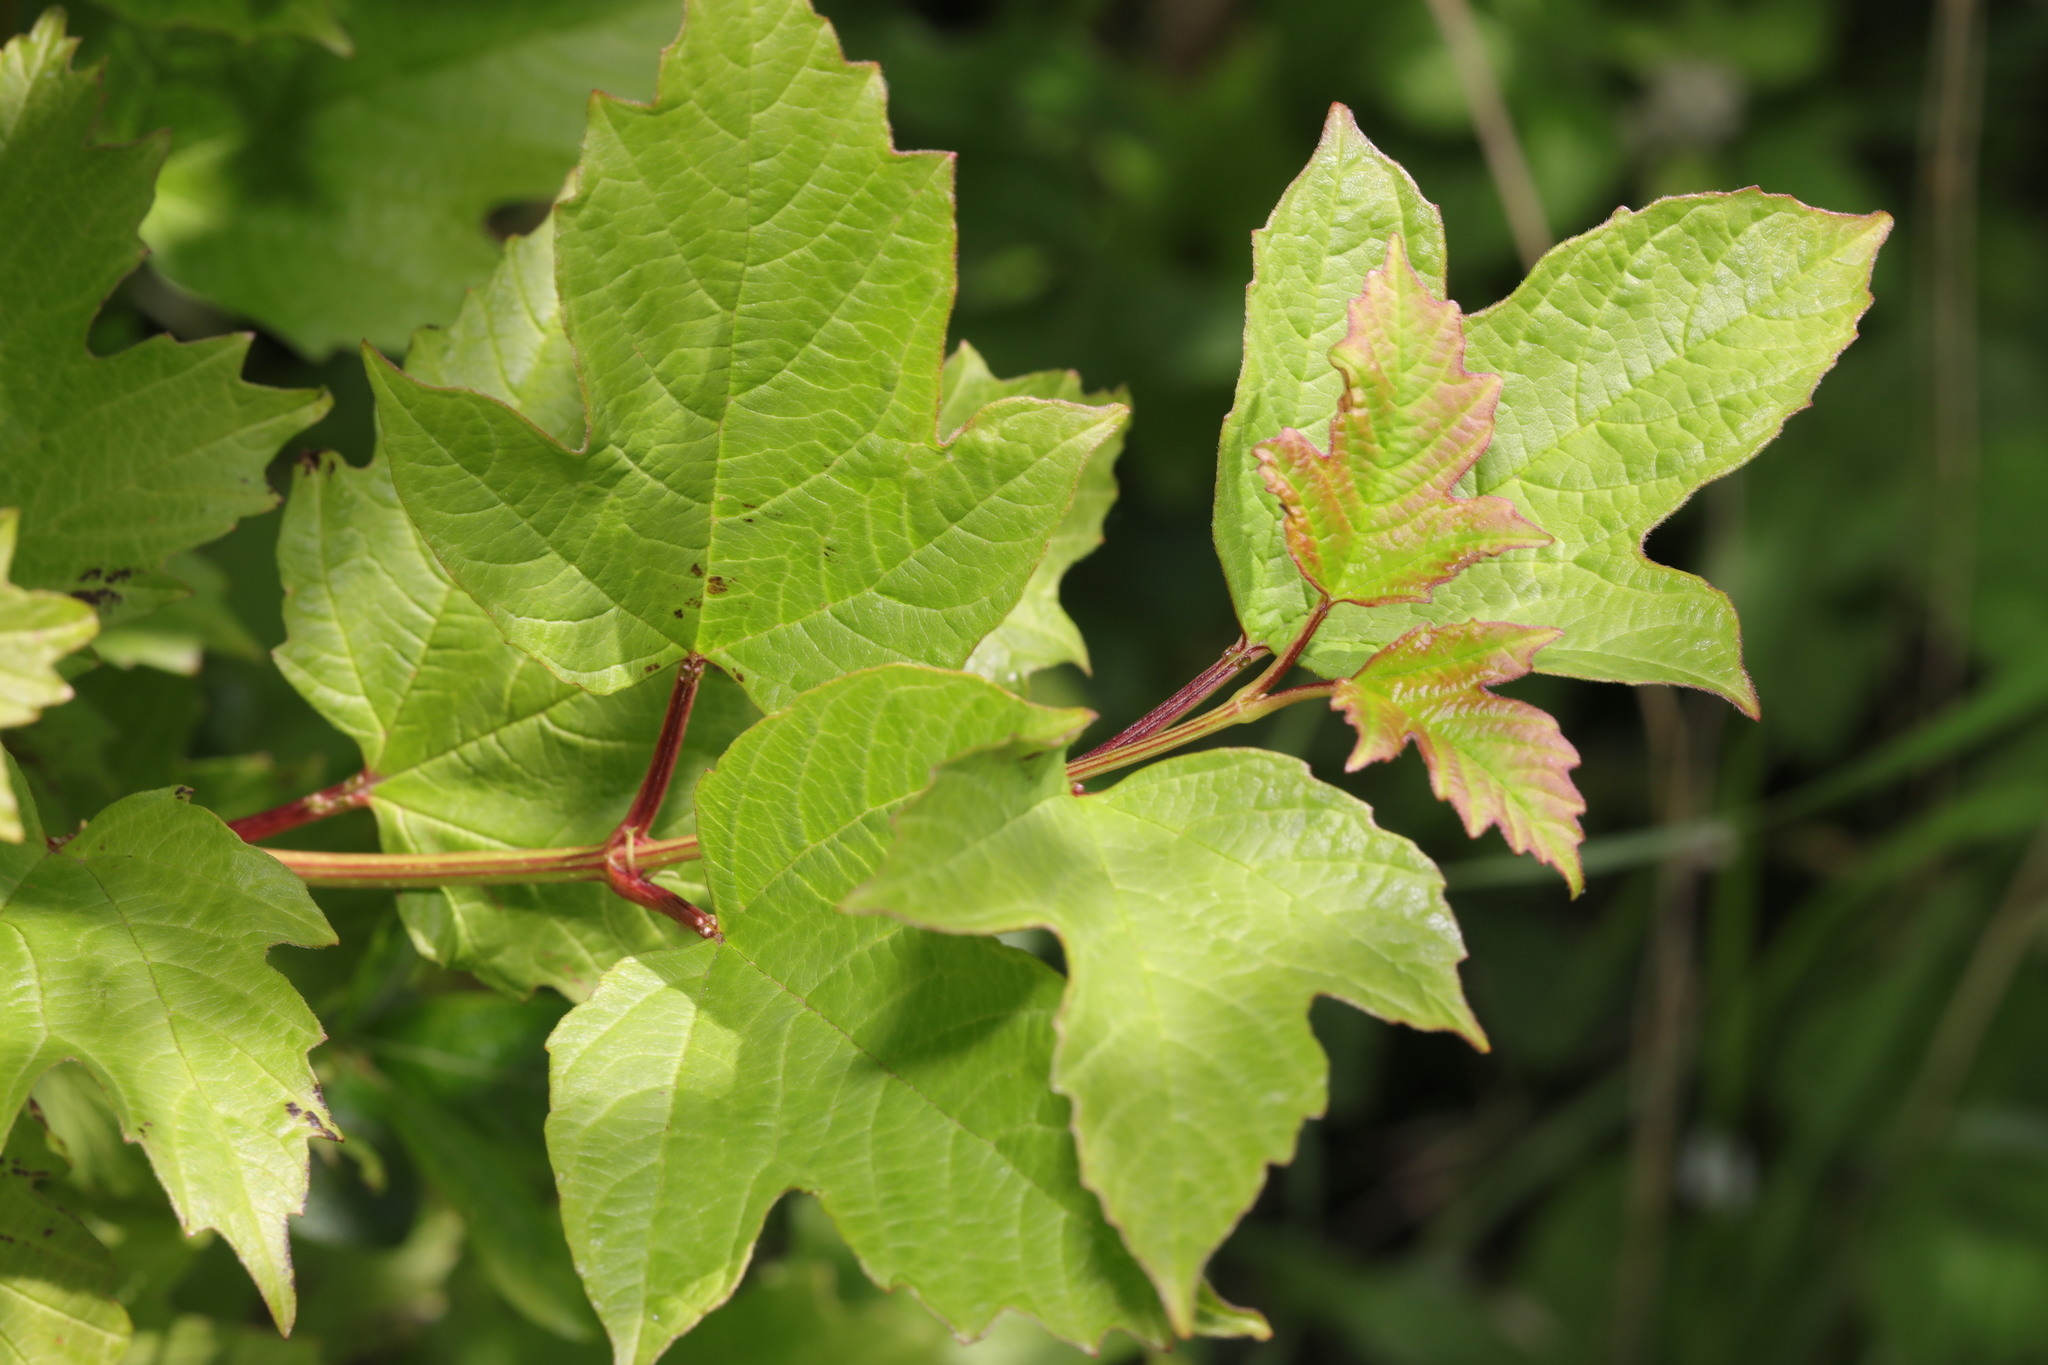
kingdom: Plantae
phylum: Tracheophyta
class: Magnoliopsida
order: Dipsacales
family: Viburnaceae
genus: Viburnum
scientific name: Viburnum opulus
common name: Guelder-rose
